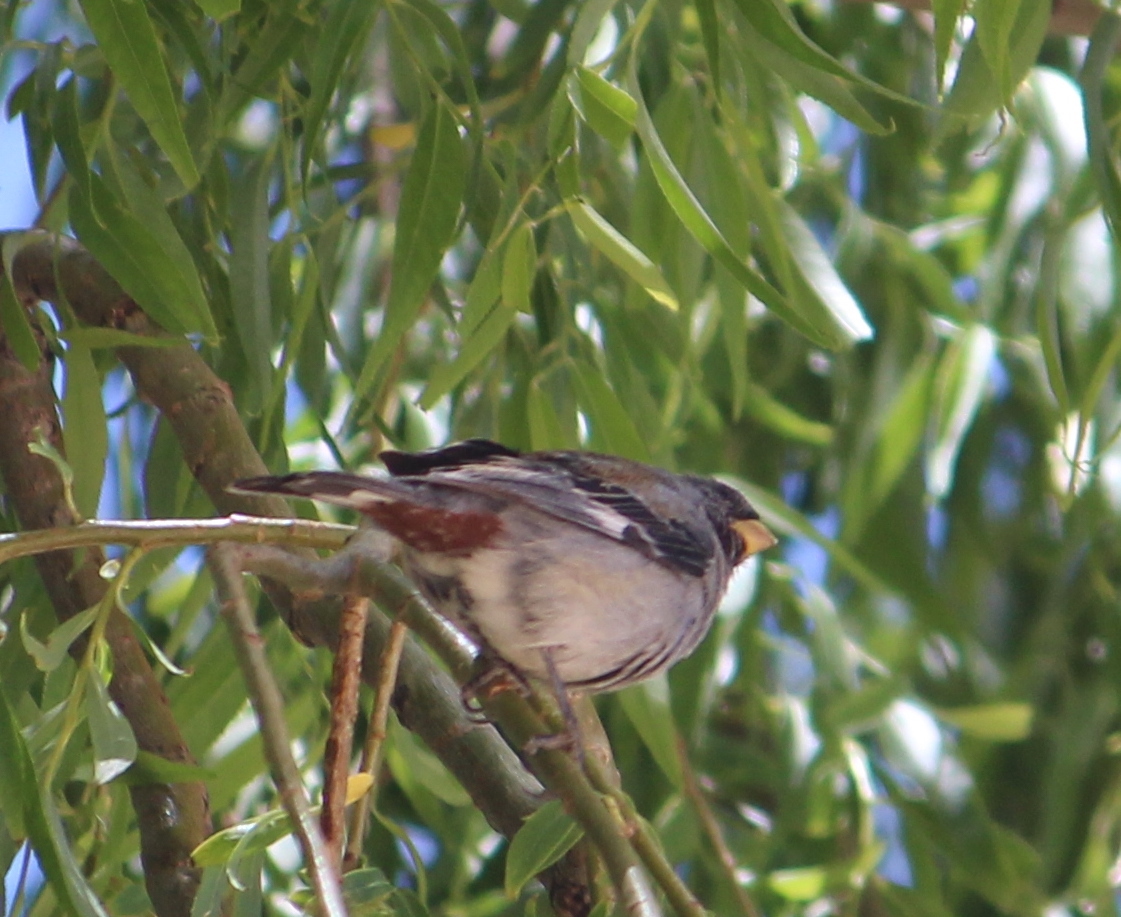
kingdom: Animalia
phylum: Chordata
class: Aves
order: Passeriformes
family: Thraupidae
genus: Catamenia
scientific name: Catamenia analis
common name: Band-tailed seedeater
